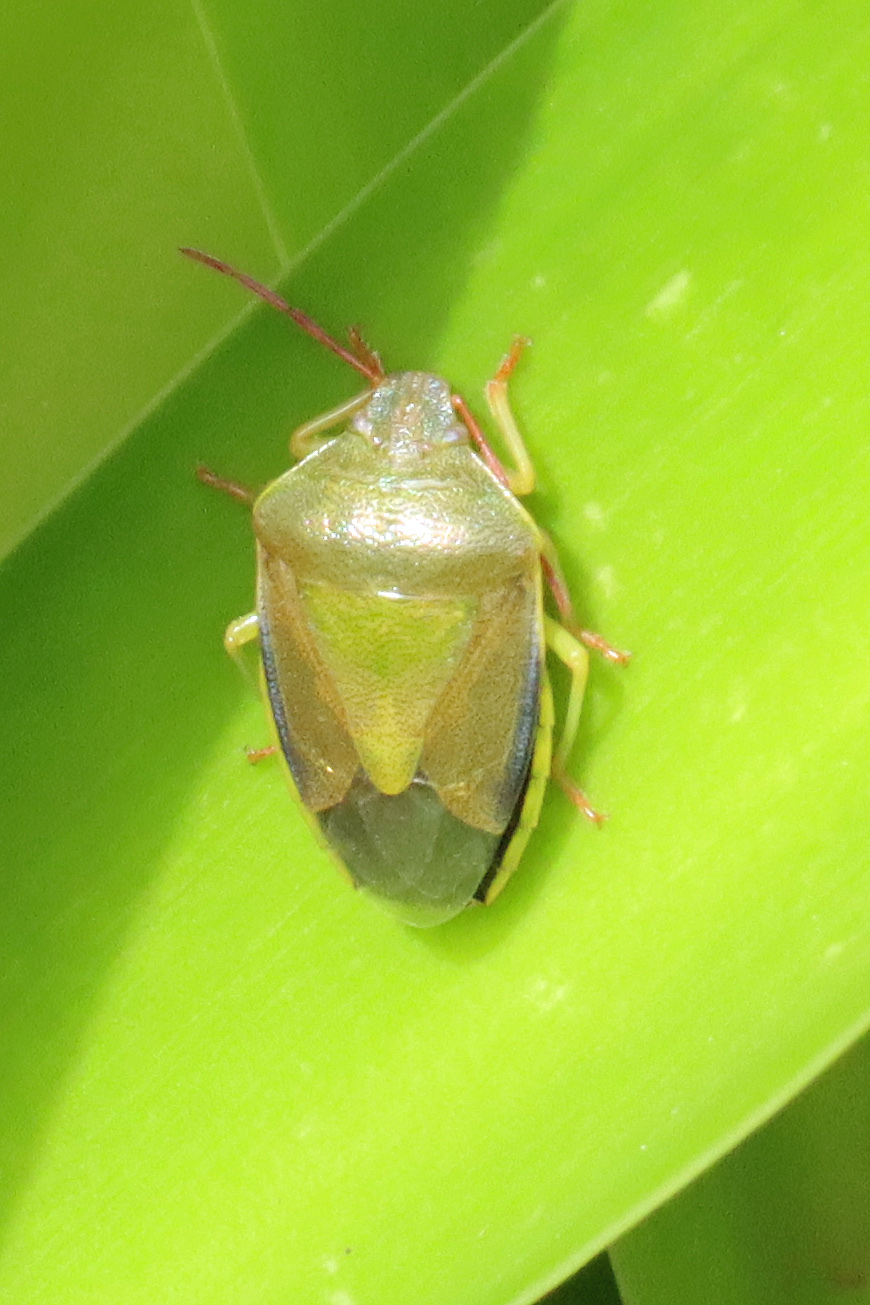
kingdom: Animalia
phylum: Arthropoda
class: Insecta
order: Hemiptera
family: Pentatomidae
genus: Piezodorus
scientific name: Piezodorus lituratus
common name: Stink bug
